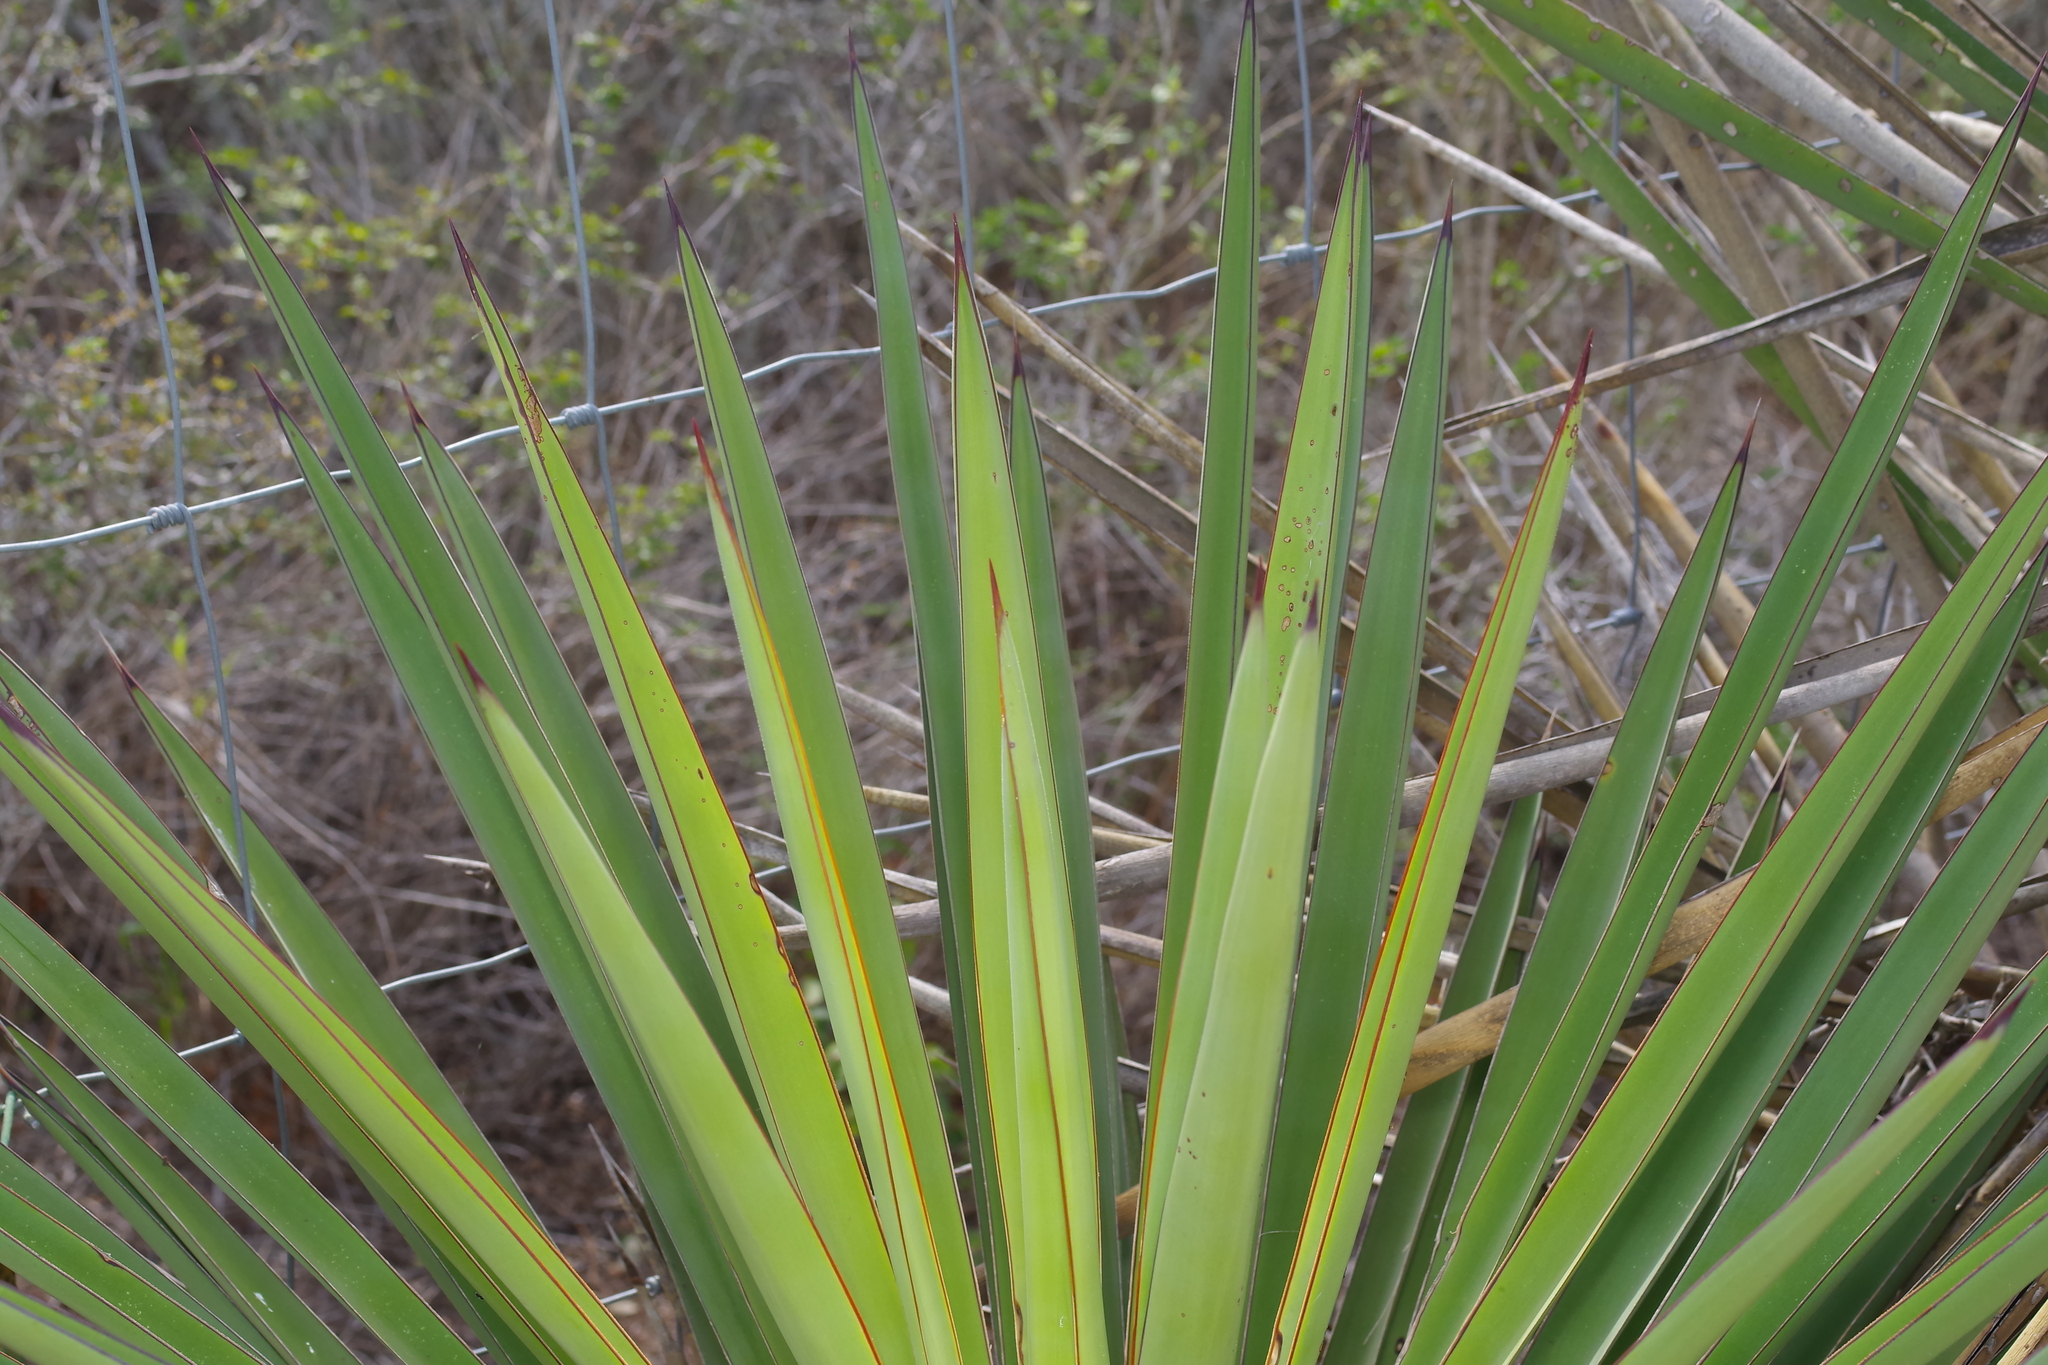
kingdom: Plantae
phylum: Tracheophyta
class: Liliopsida
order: Asparagales
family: Asparagaceae
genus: Yucca
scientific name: Yucca treculiana
